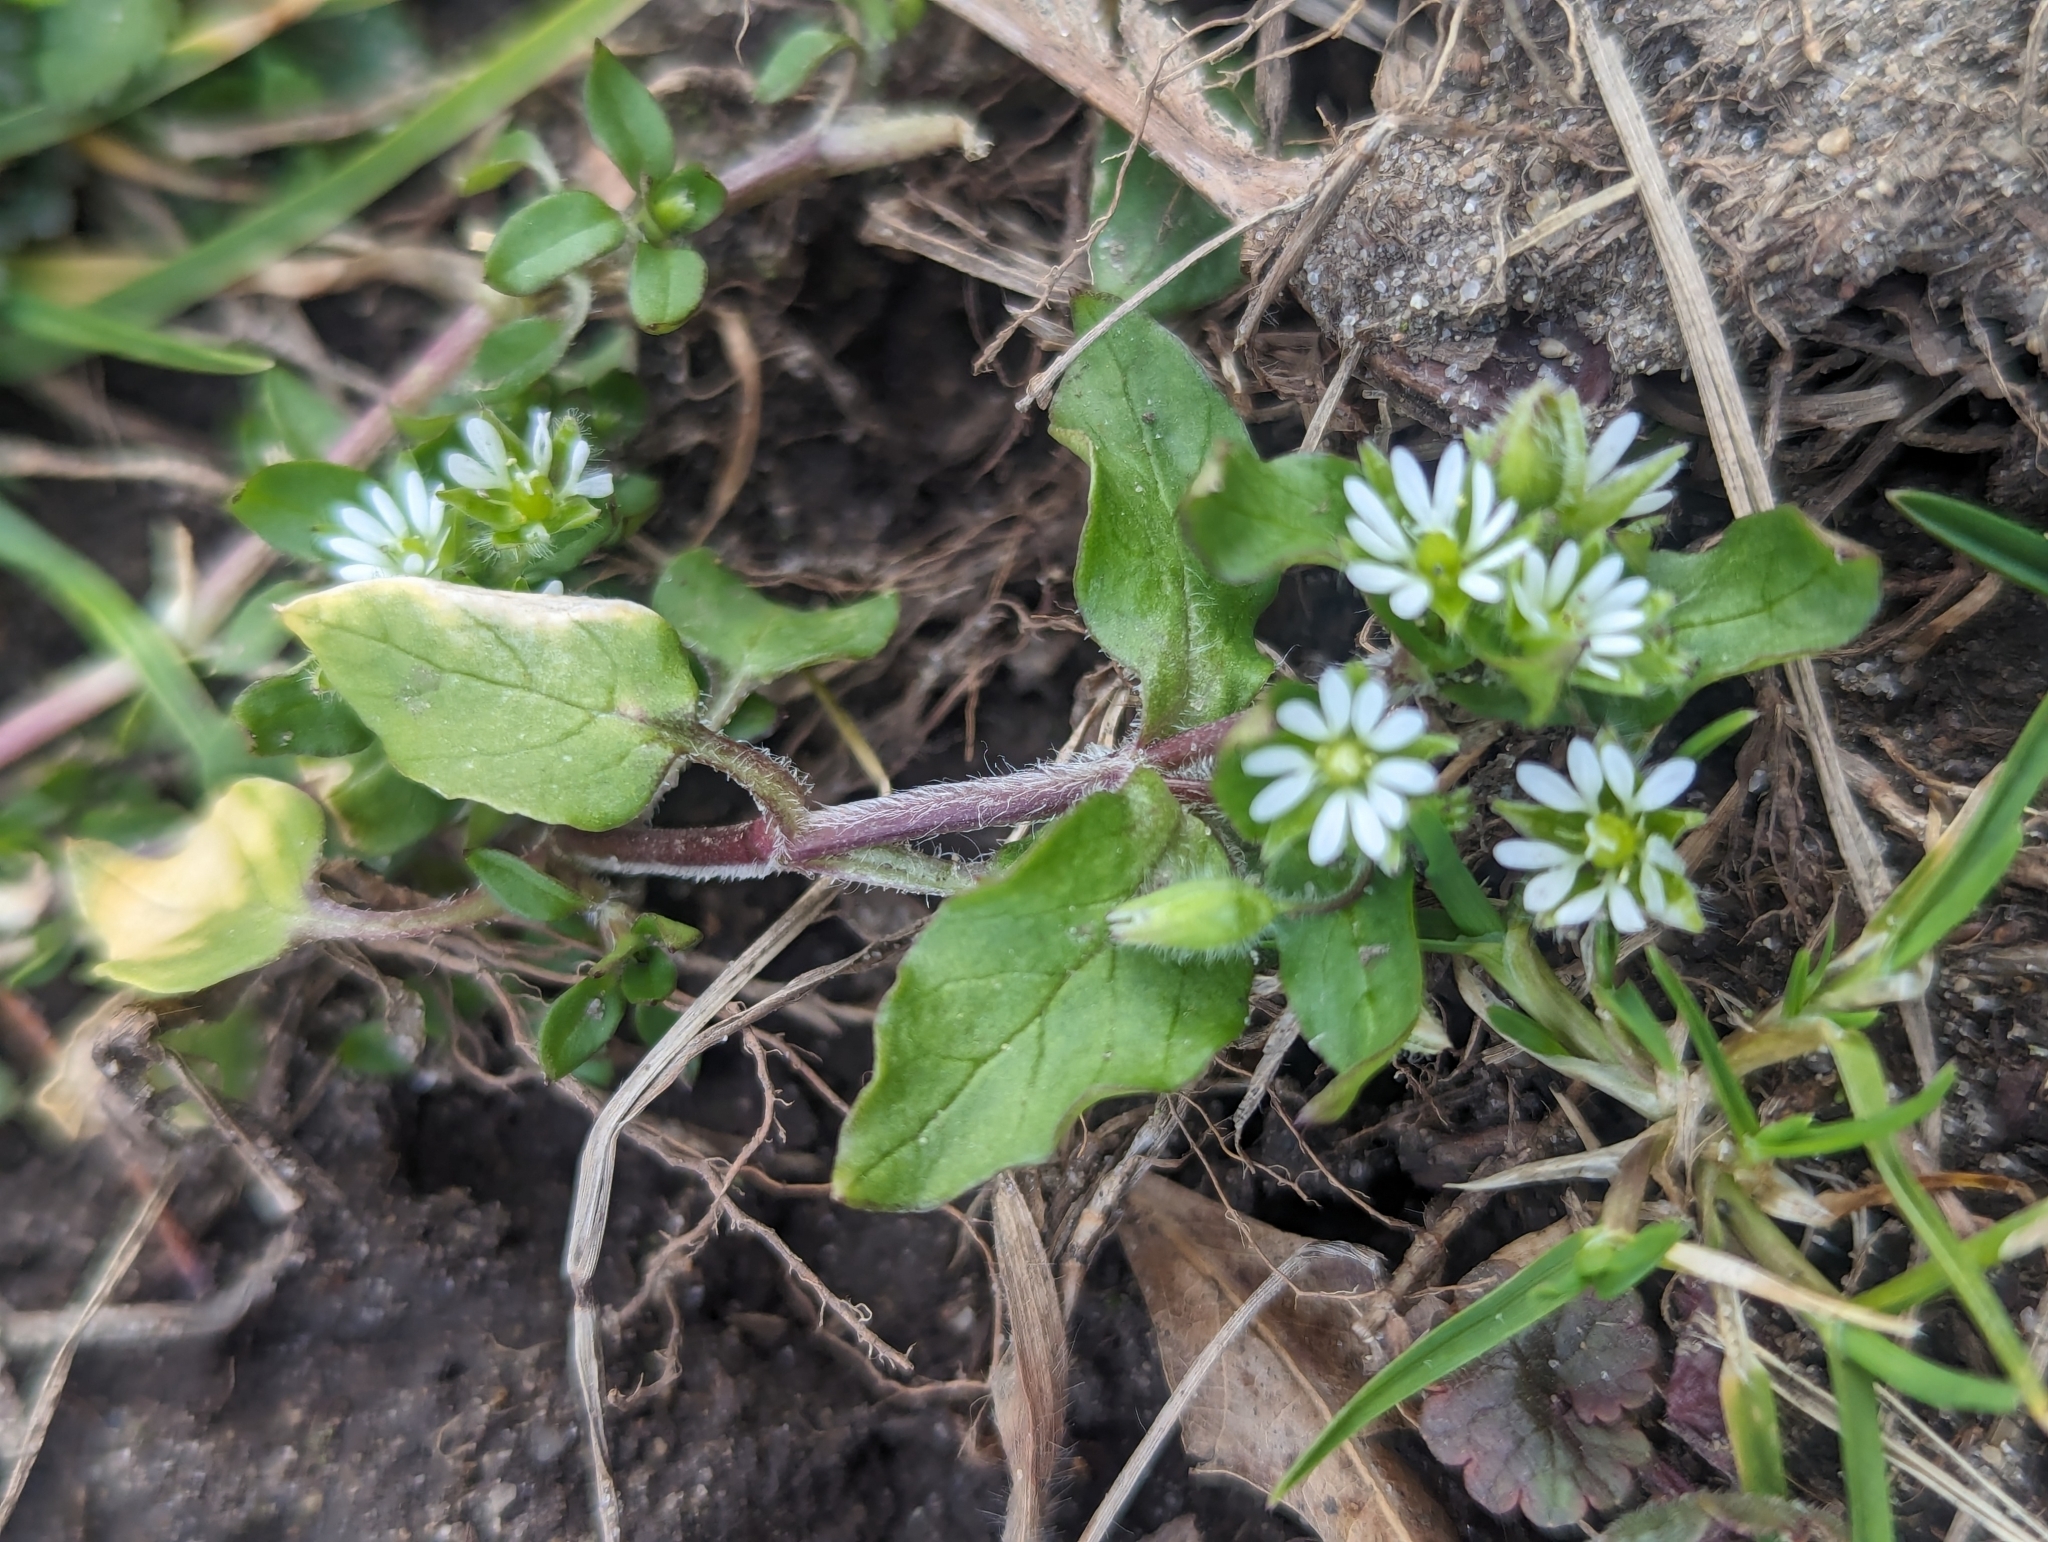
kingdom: Plantae
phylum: Tracheophyta
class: Magnoliopsida
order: Caryophyllales
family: Caryophyllaceae
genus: Stellaria
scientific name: Stellaria media
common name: Common chickweed
